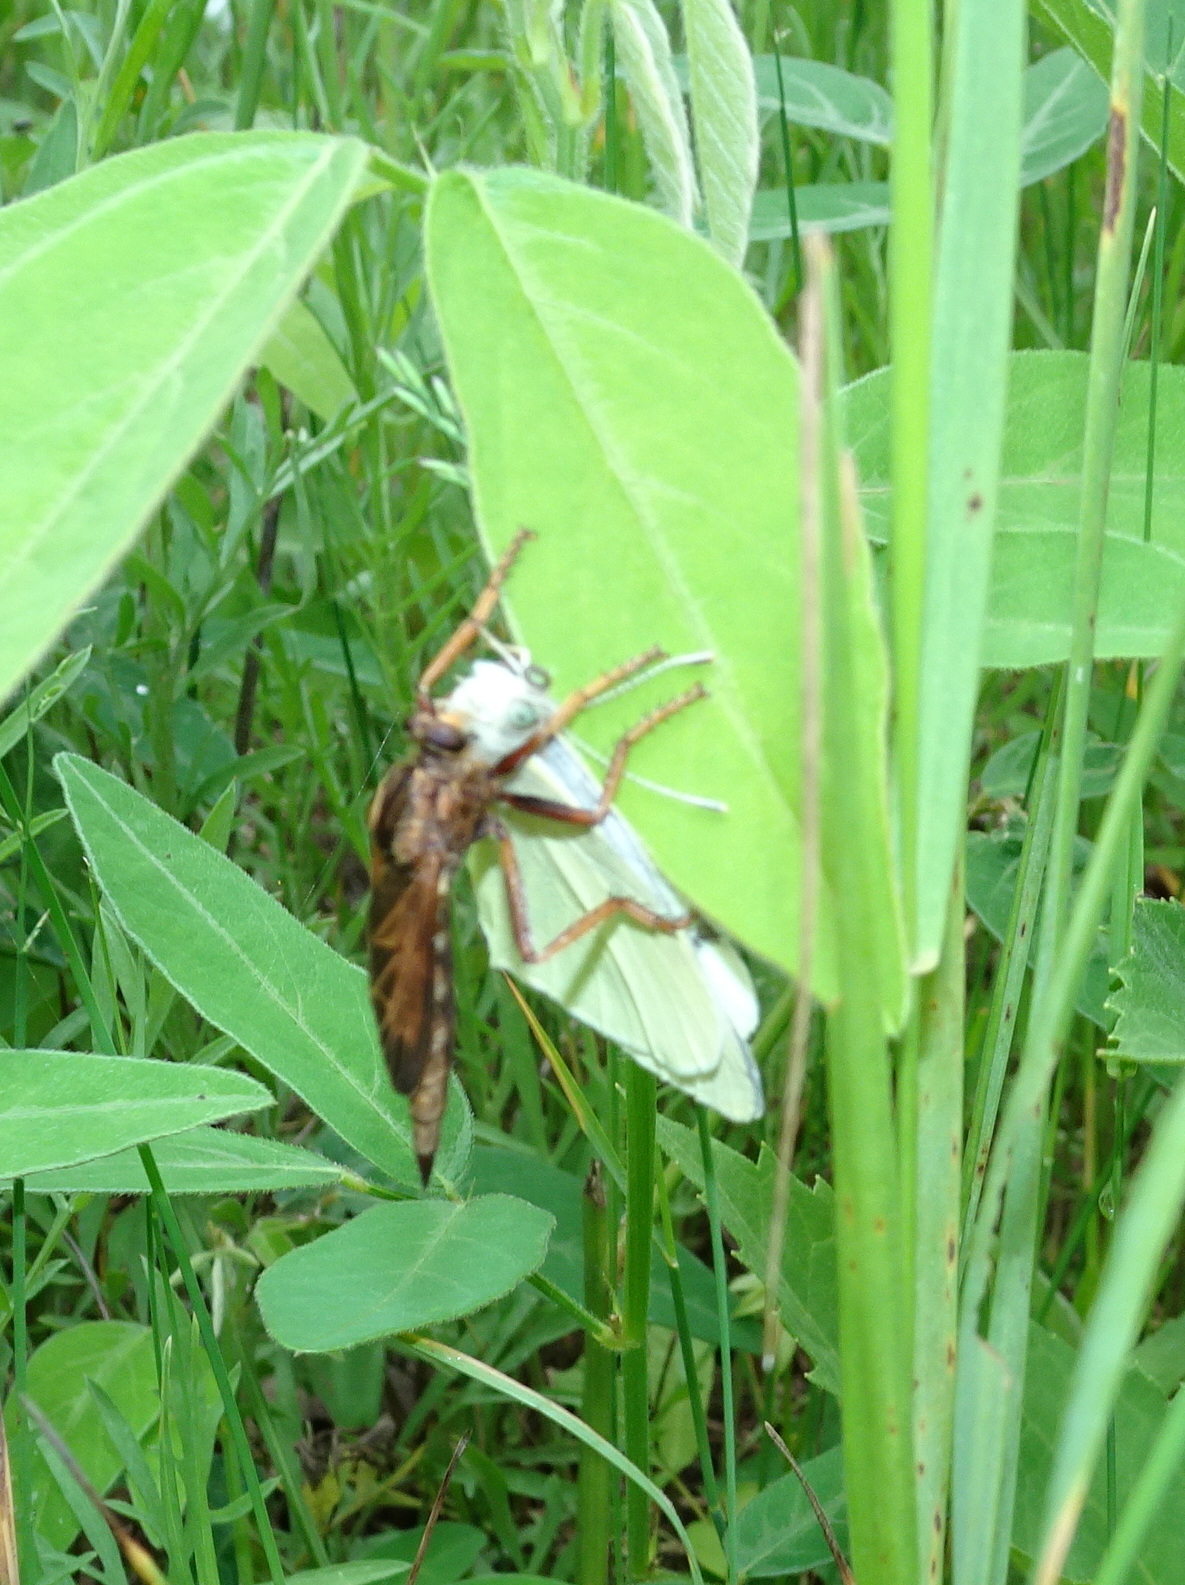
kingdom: Animalia
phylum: Arthropoda
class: Insecta
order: Diptera
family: Asilidae
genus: Asilus
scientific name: Asilus sericeus
